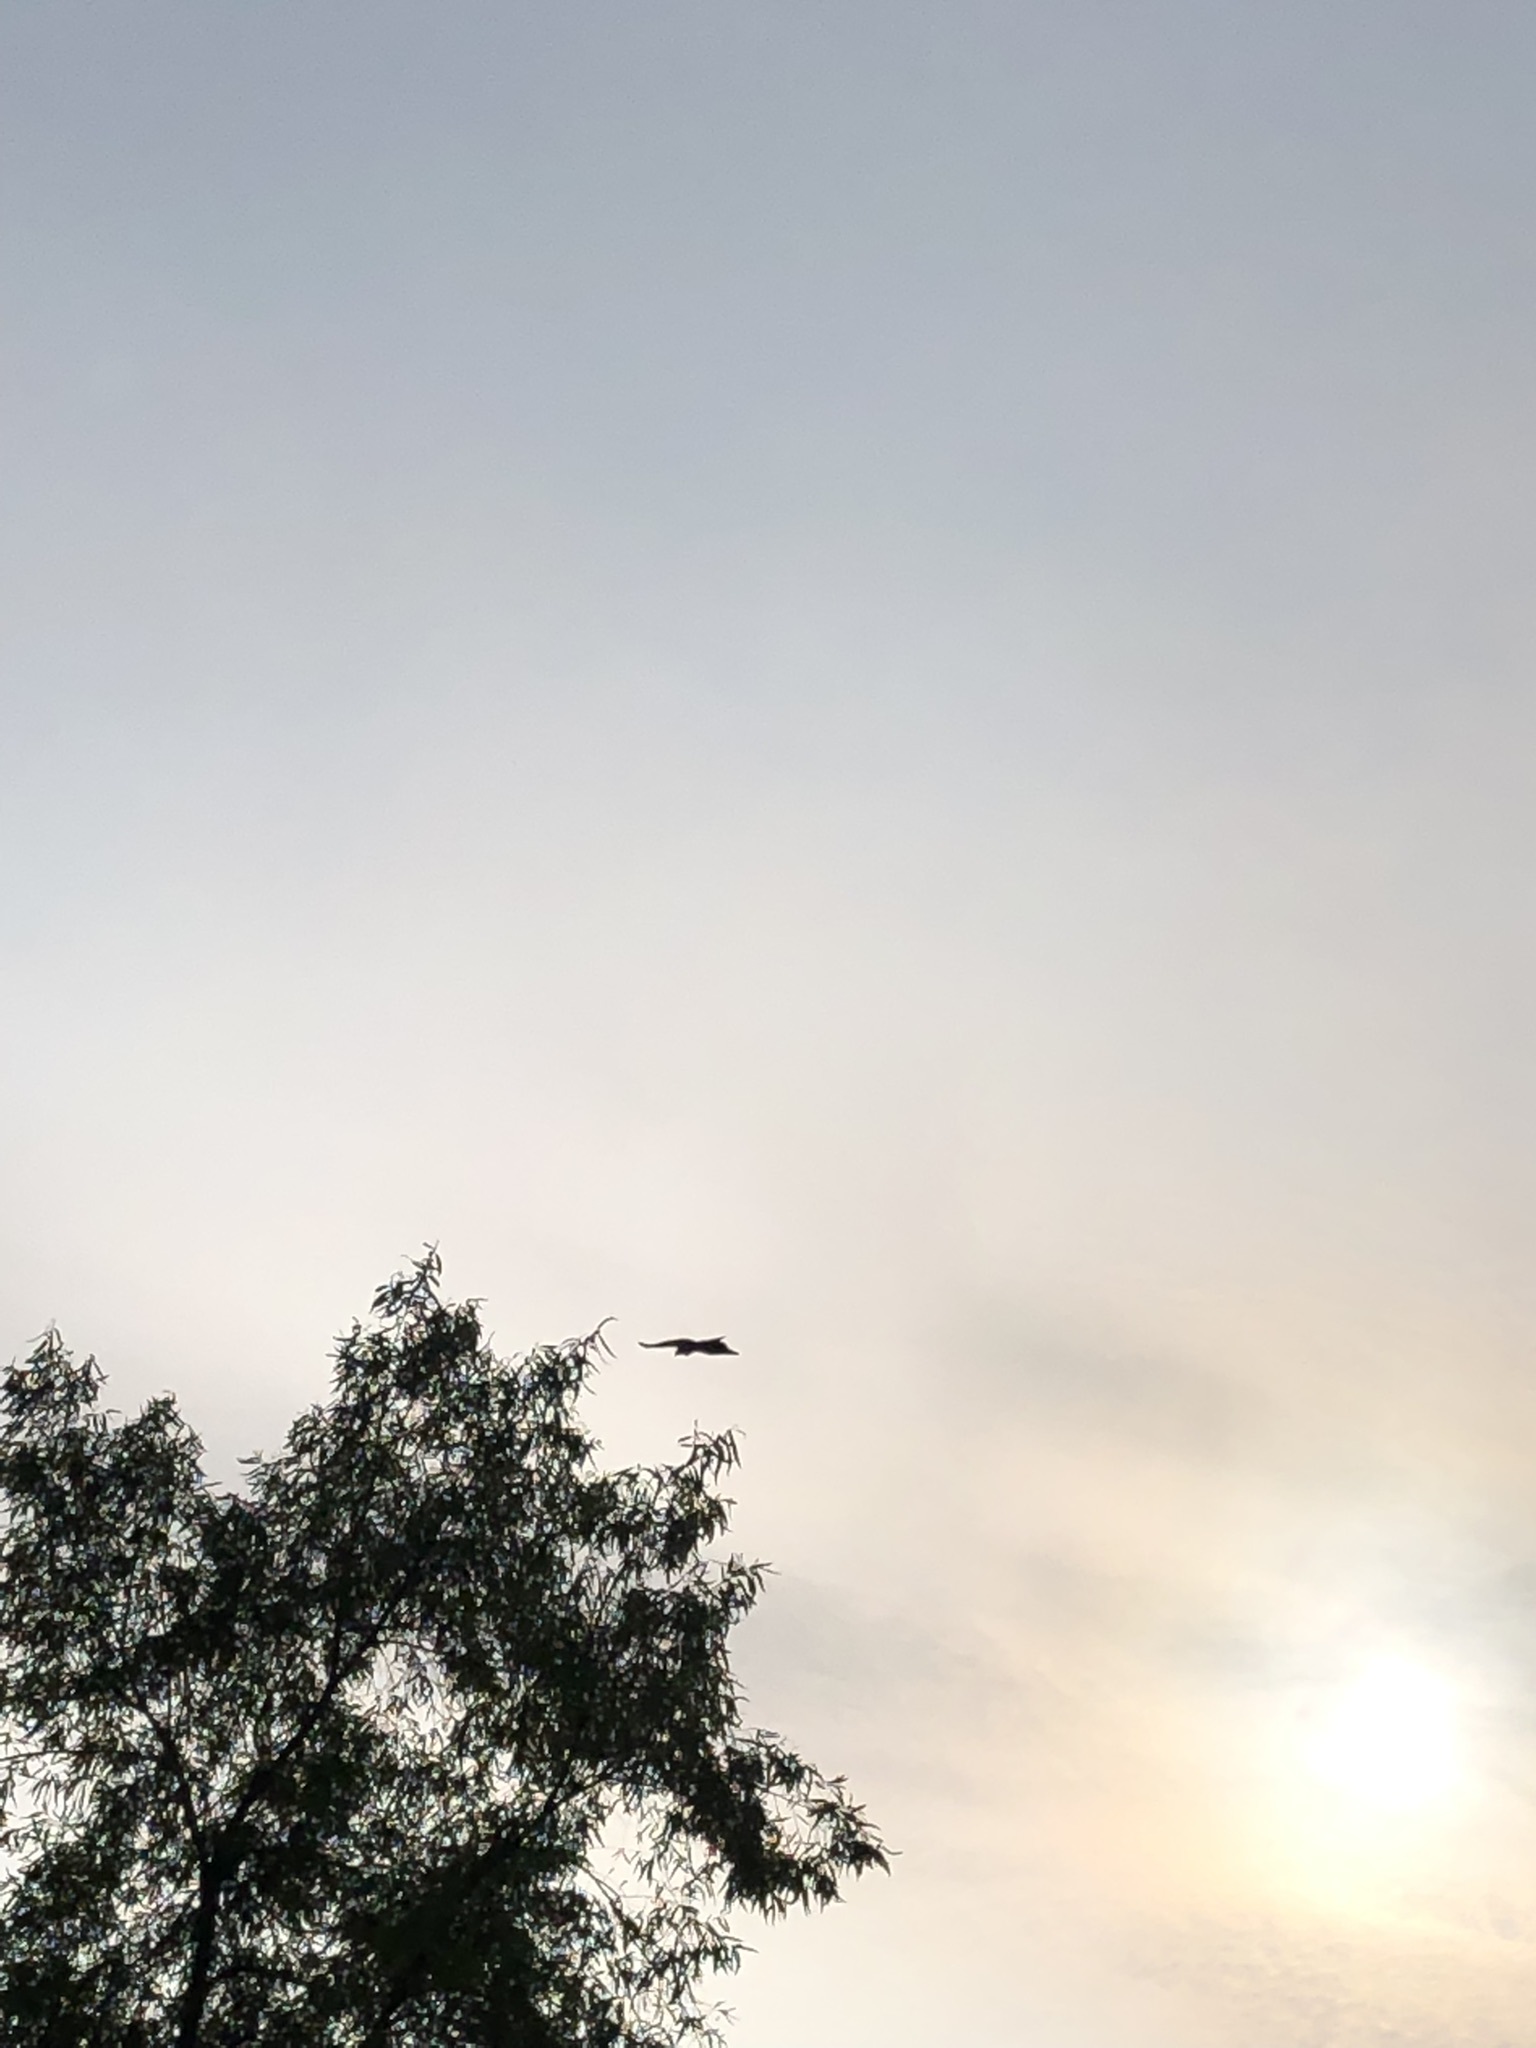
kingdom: Animalia
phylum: Chordata
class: Aves
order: Accipitriformes
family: Accipitridae
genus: Parabuteo
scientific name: Parabuteo unicinctus
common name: Harris's hawk
